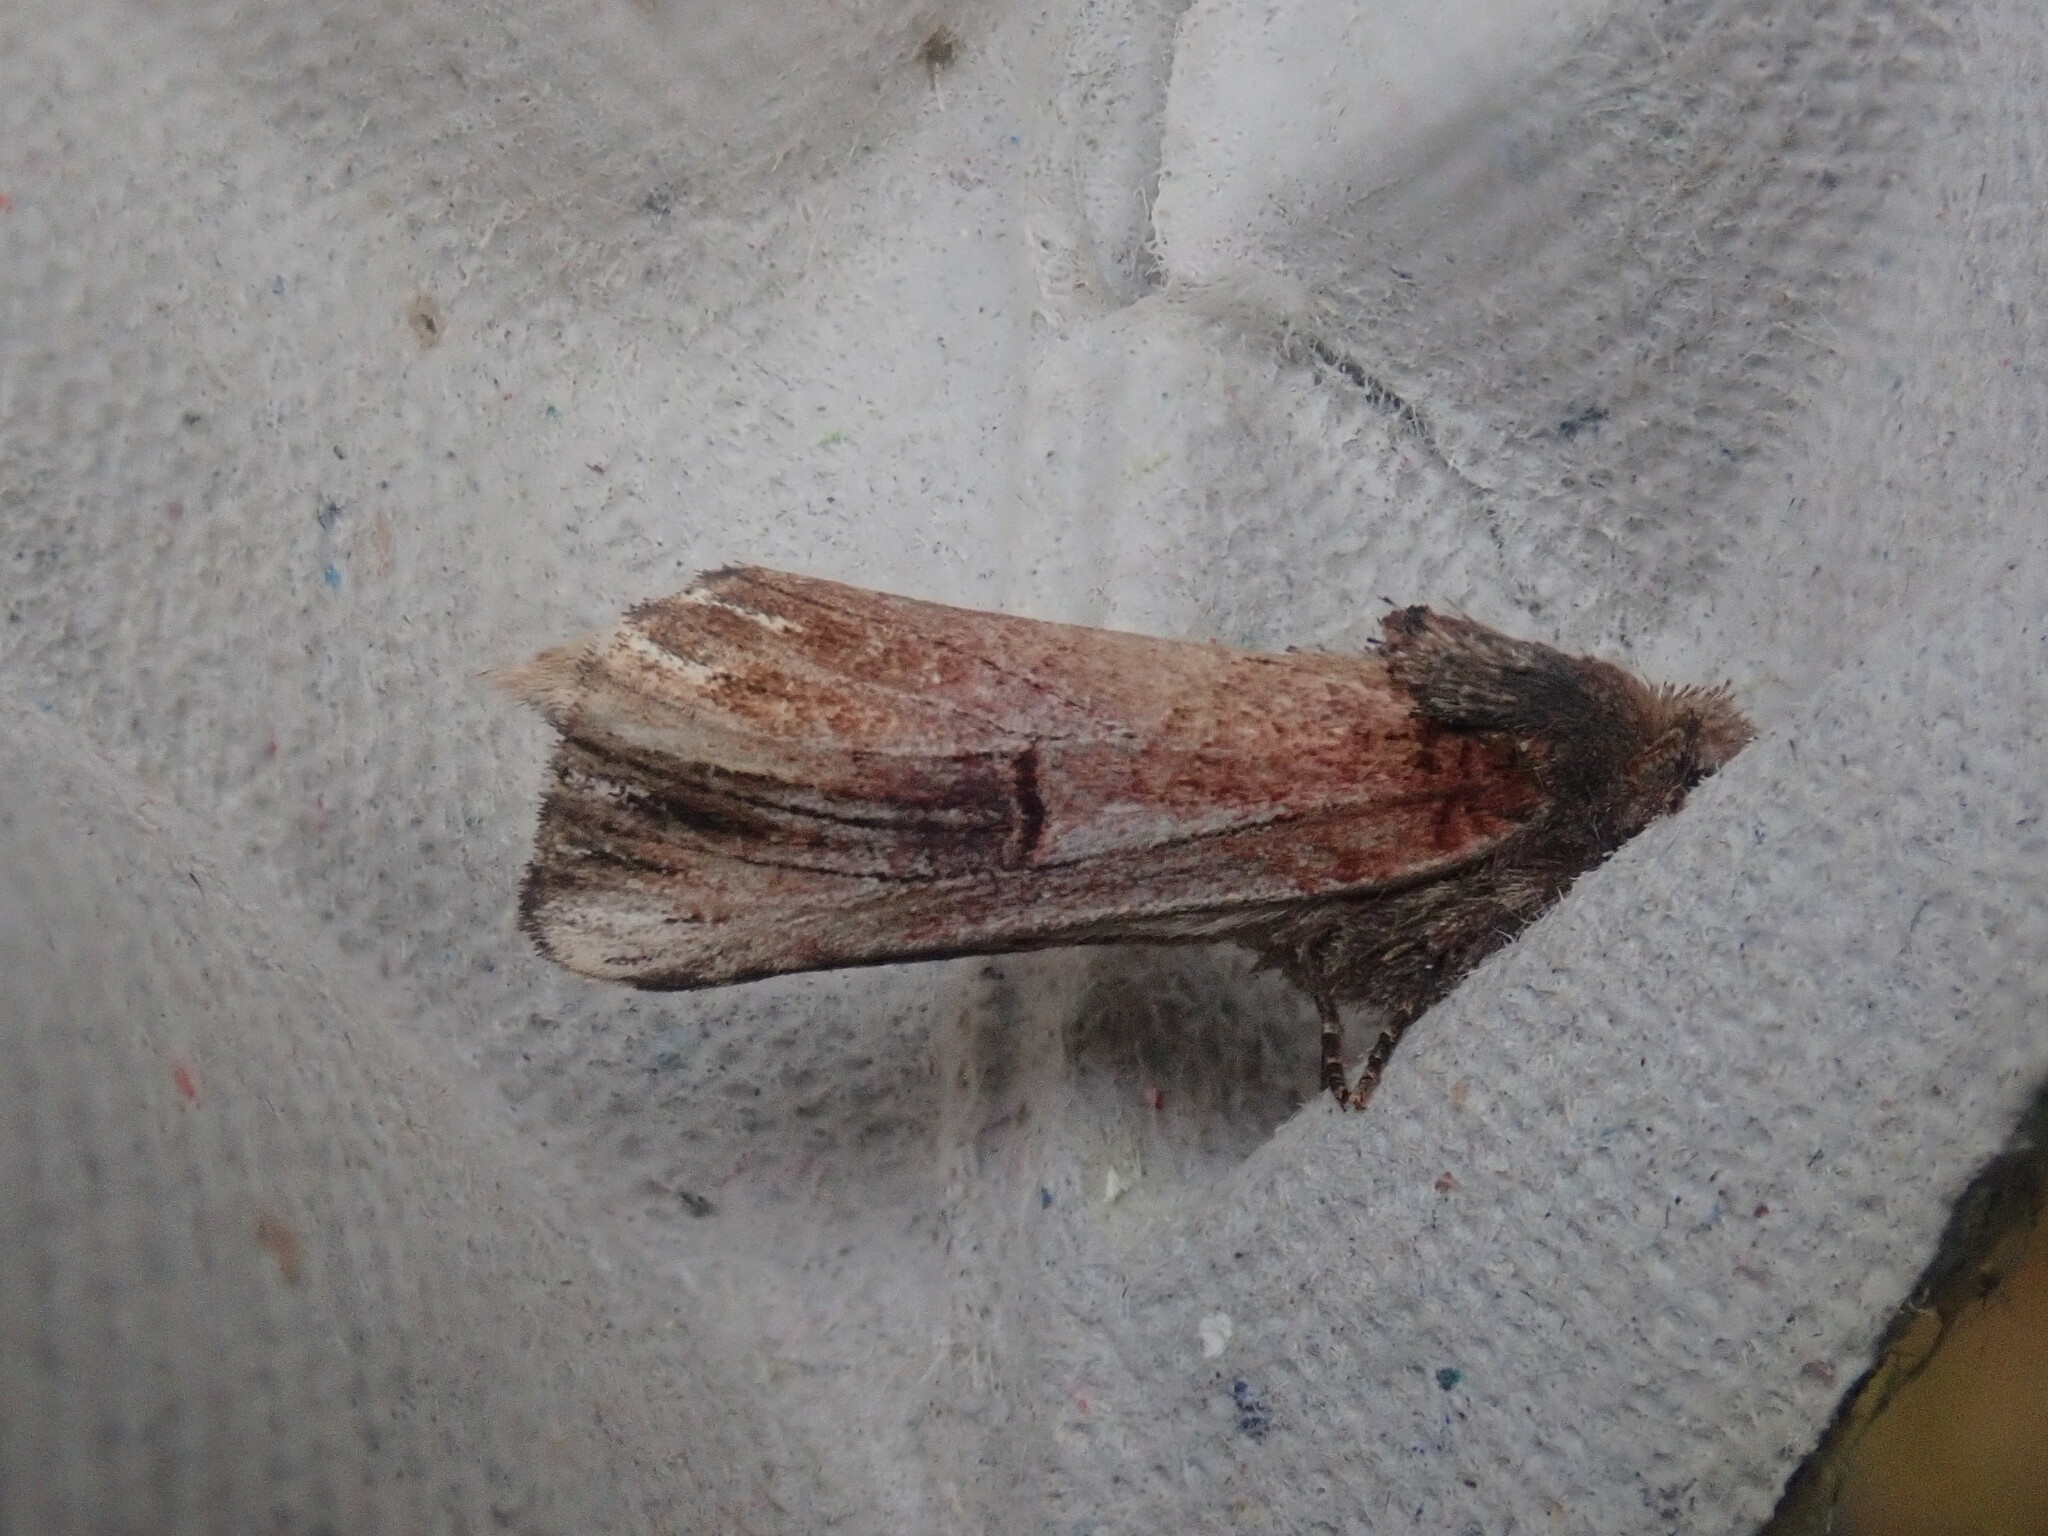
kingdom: Animalia
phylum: Arthropoda
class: Insecta
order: Lepidoptera
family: Notodontidae
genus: Schizura
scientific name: Schizura badia
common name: Chestnut schizura
